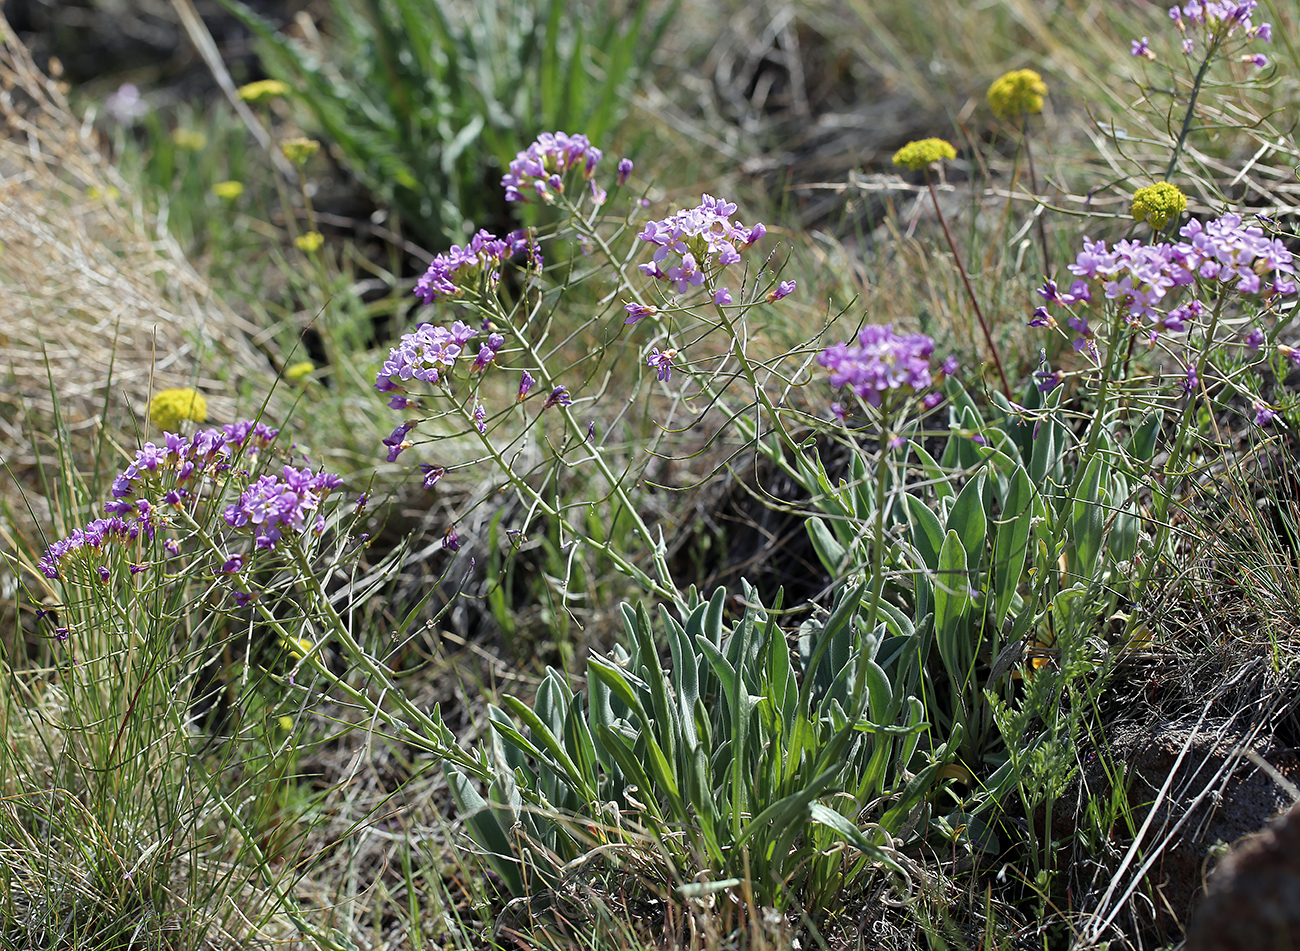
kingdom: Plantae
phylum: Tracheophyta
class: Magnoliopsida
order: Brassicales
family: Brassicaceae
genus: Phoenicaulis
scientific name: Phoenicaulis cheiranthoides
